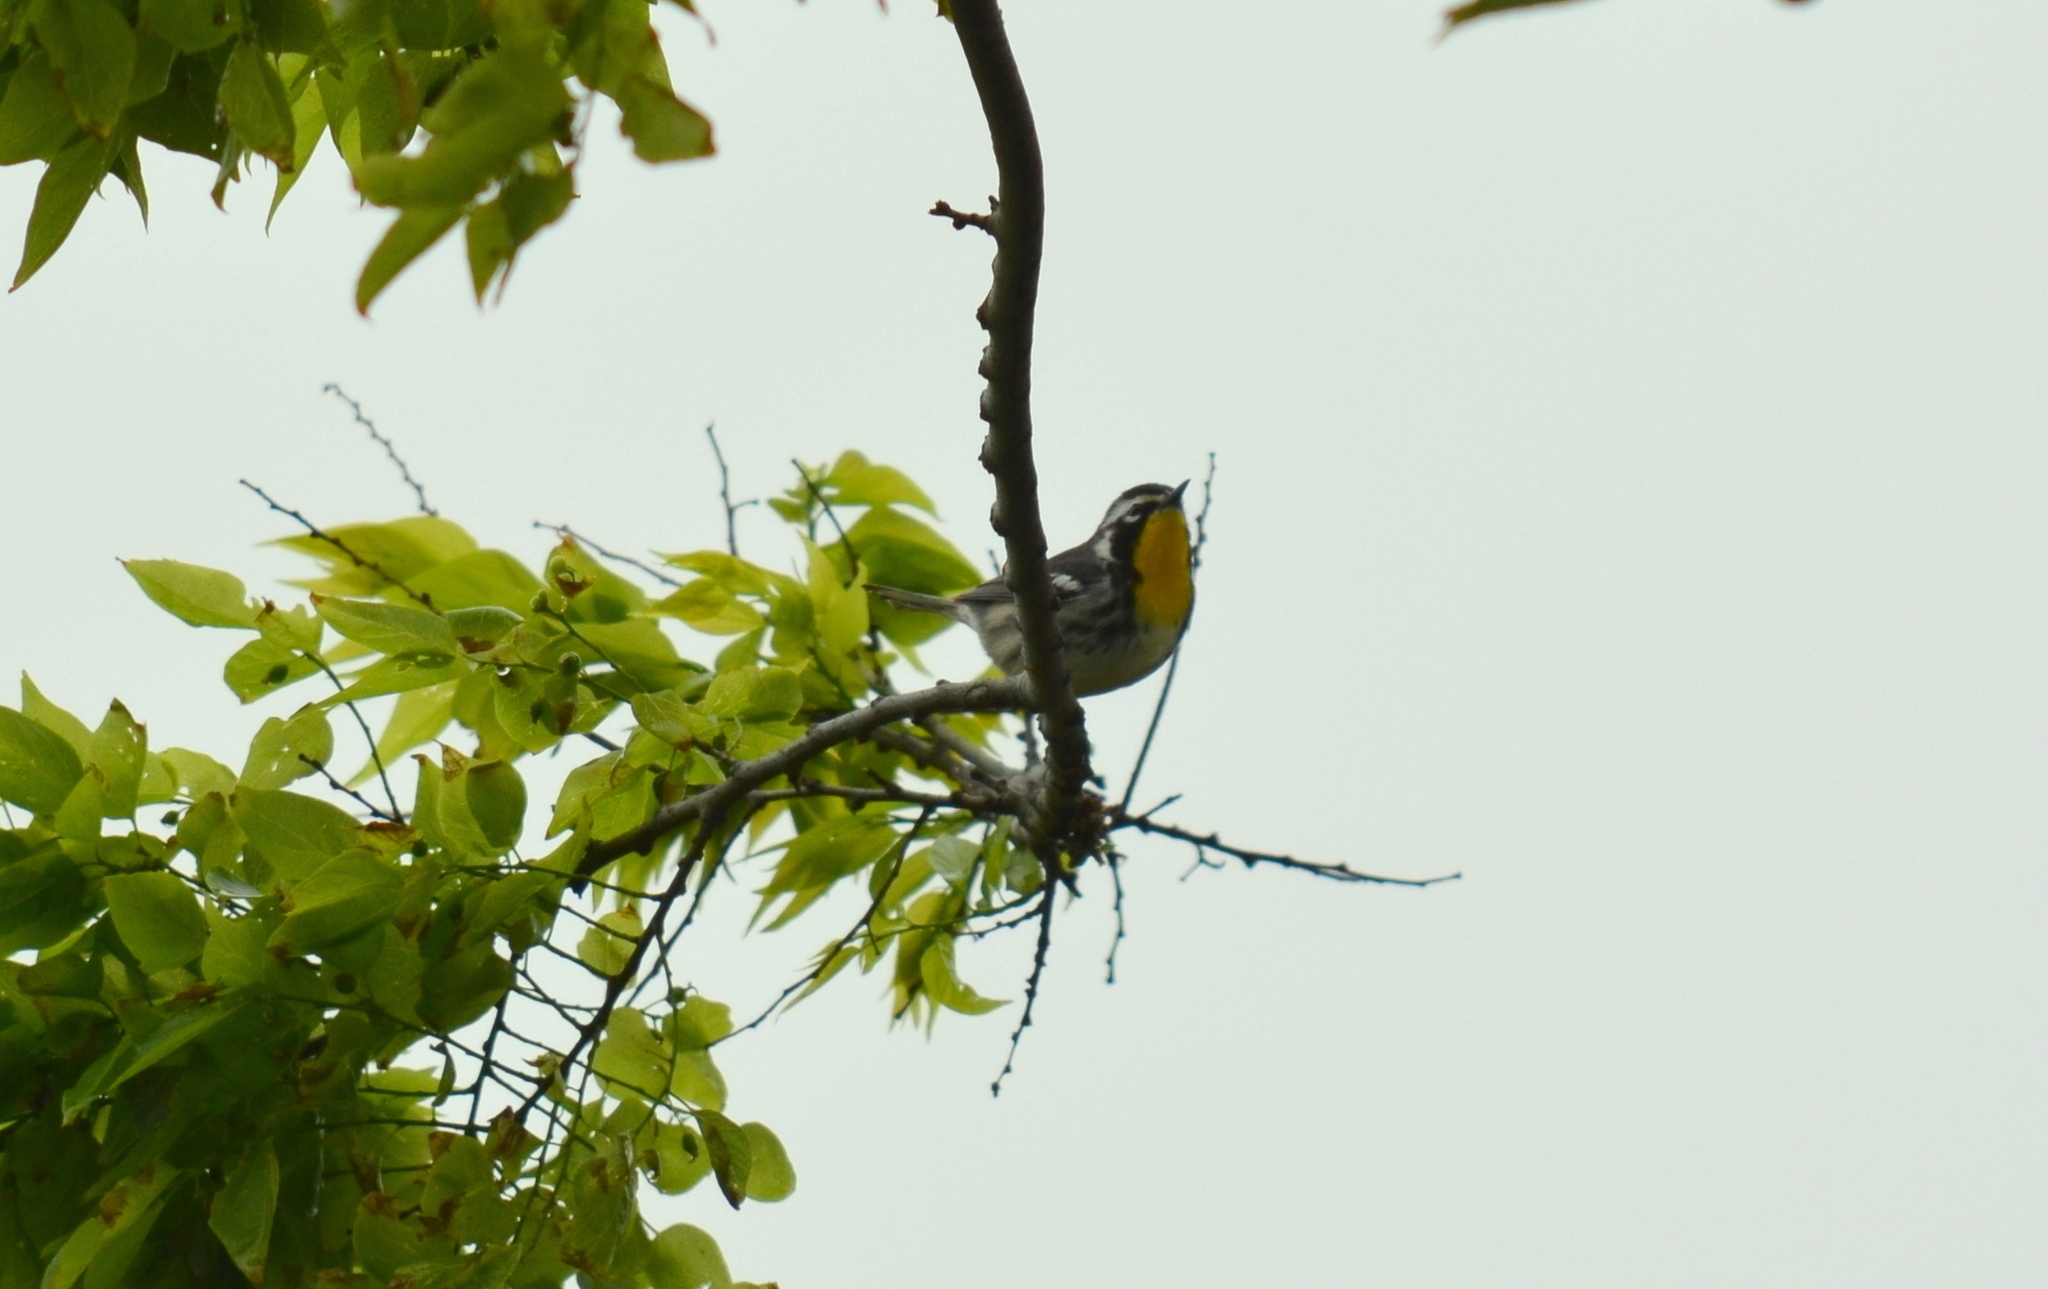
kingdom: Animalia
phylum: Chordata
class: Aves
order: Passeriformes
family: Parulidae
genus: Setophaga
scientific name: Setophaga dominica
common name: Yellow-throated warbler
